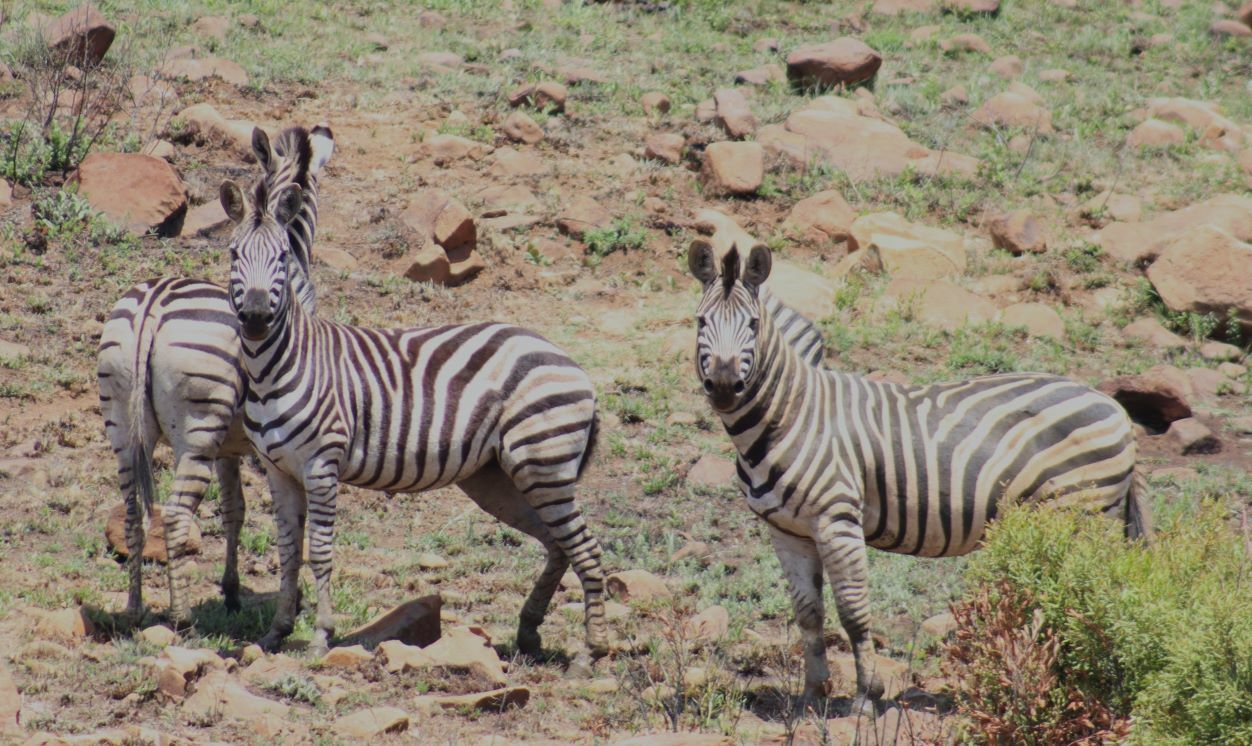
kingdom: Animalia
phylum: Chordata
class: Mammalia
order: Perissodactyla
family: Equidae
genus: Equus
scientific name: Equus quagga
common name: Plains zebra
